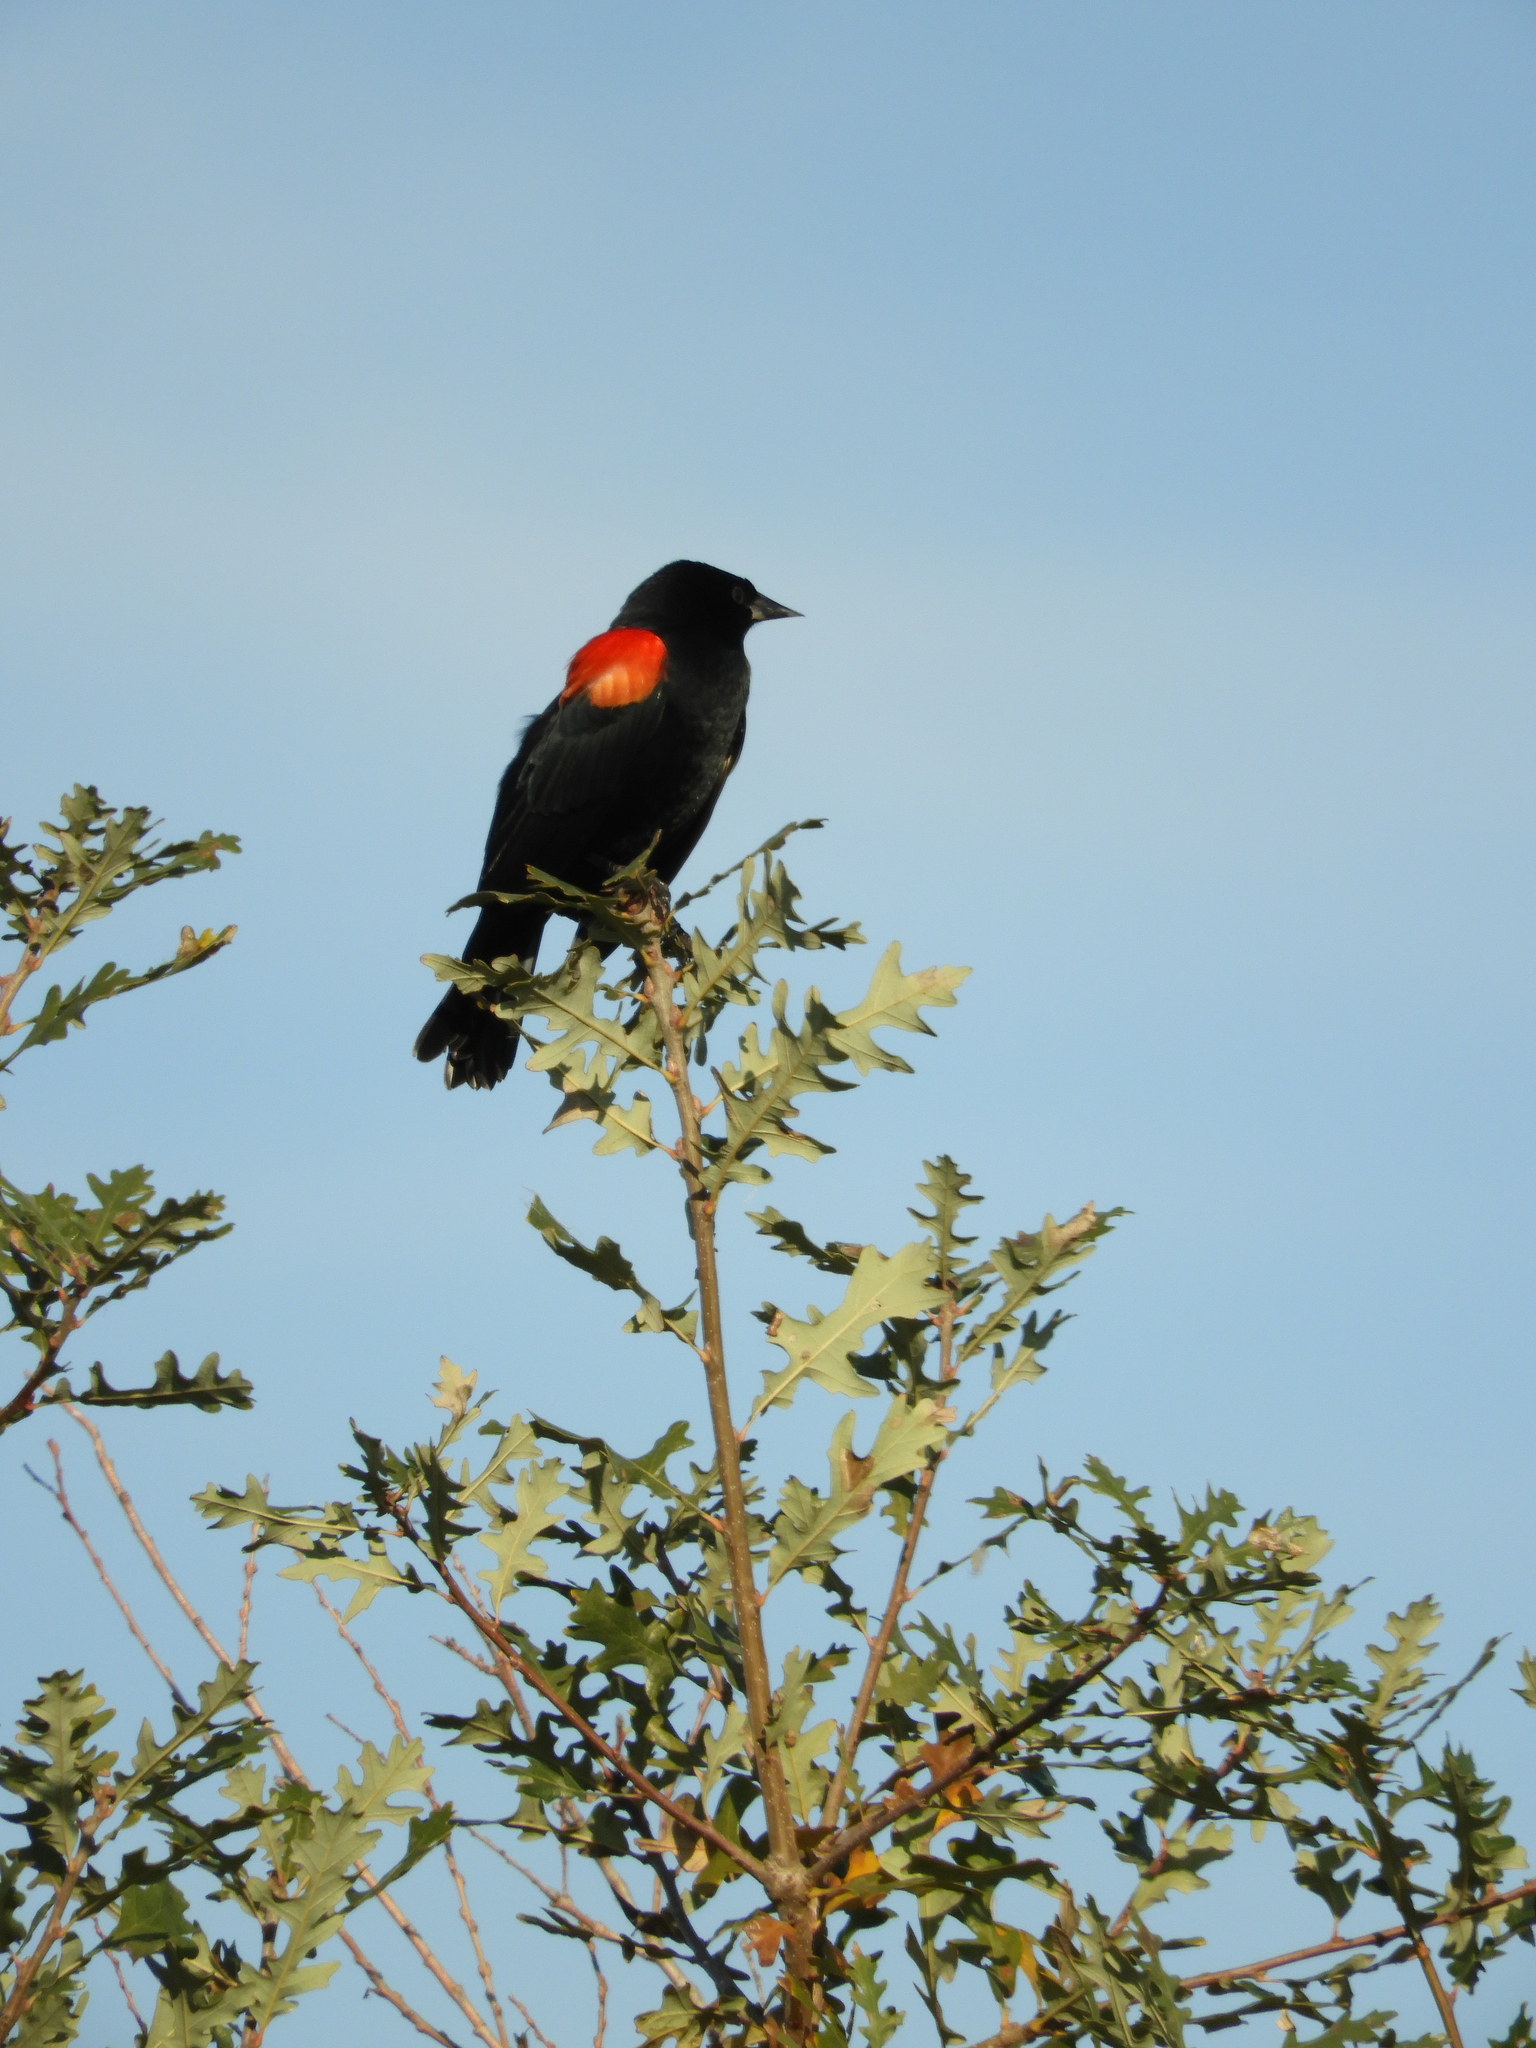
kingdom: Animalia
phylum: Chordata
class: Aves
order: Passeriformes
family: Icteridae
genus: Agelaius
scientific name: Agelaius phoeniceus
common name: Red-winged blackbird
